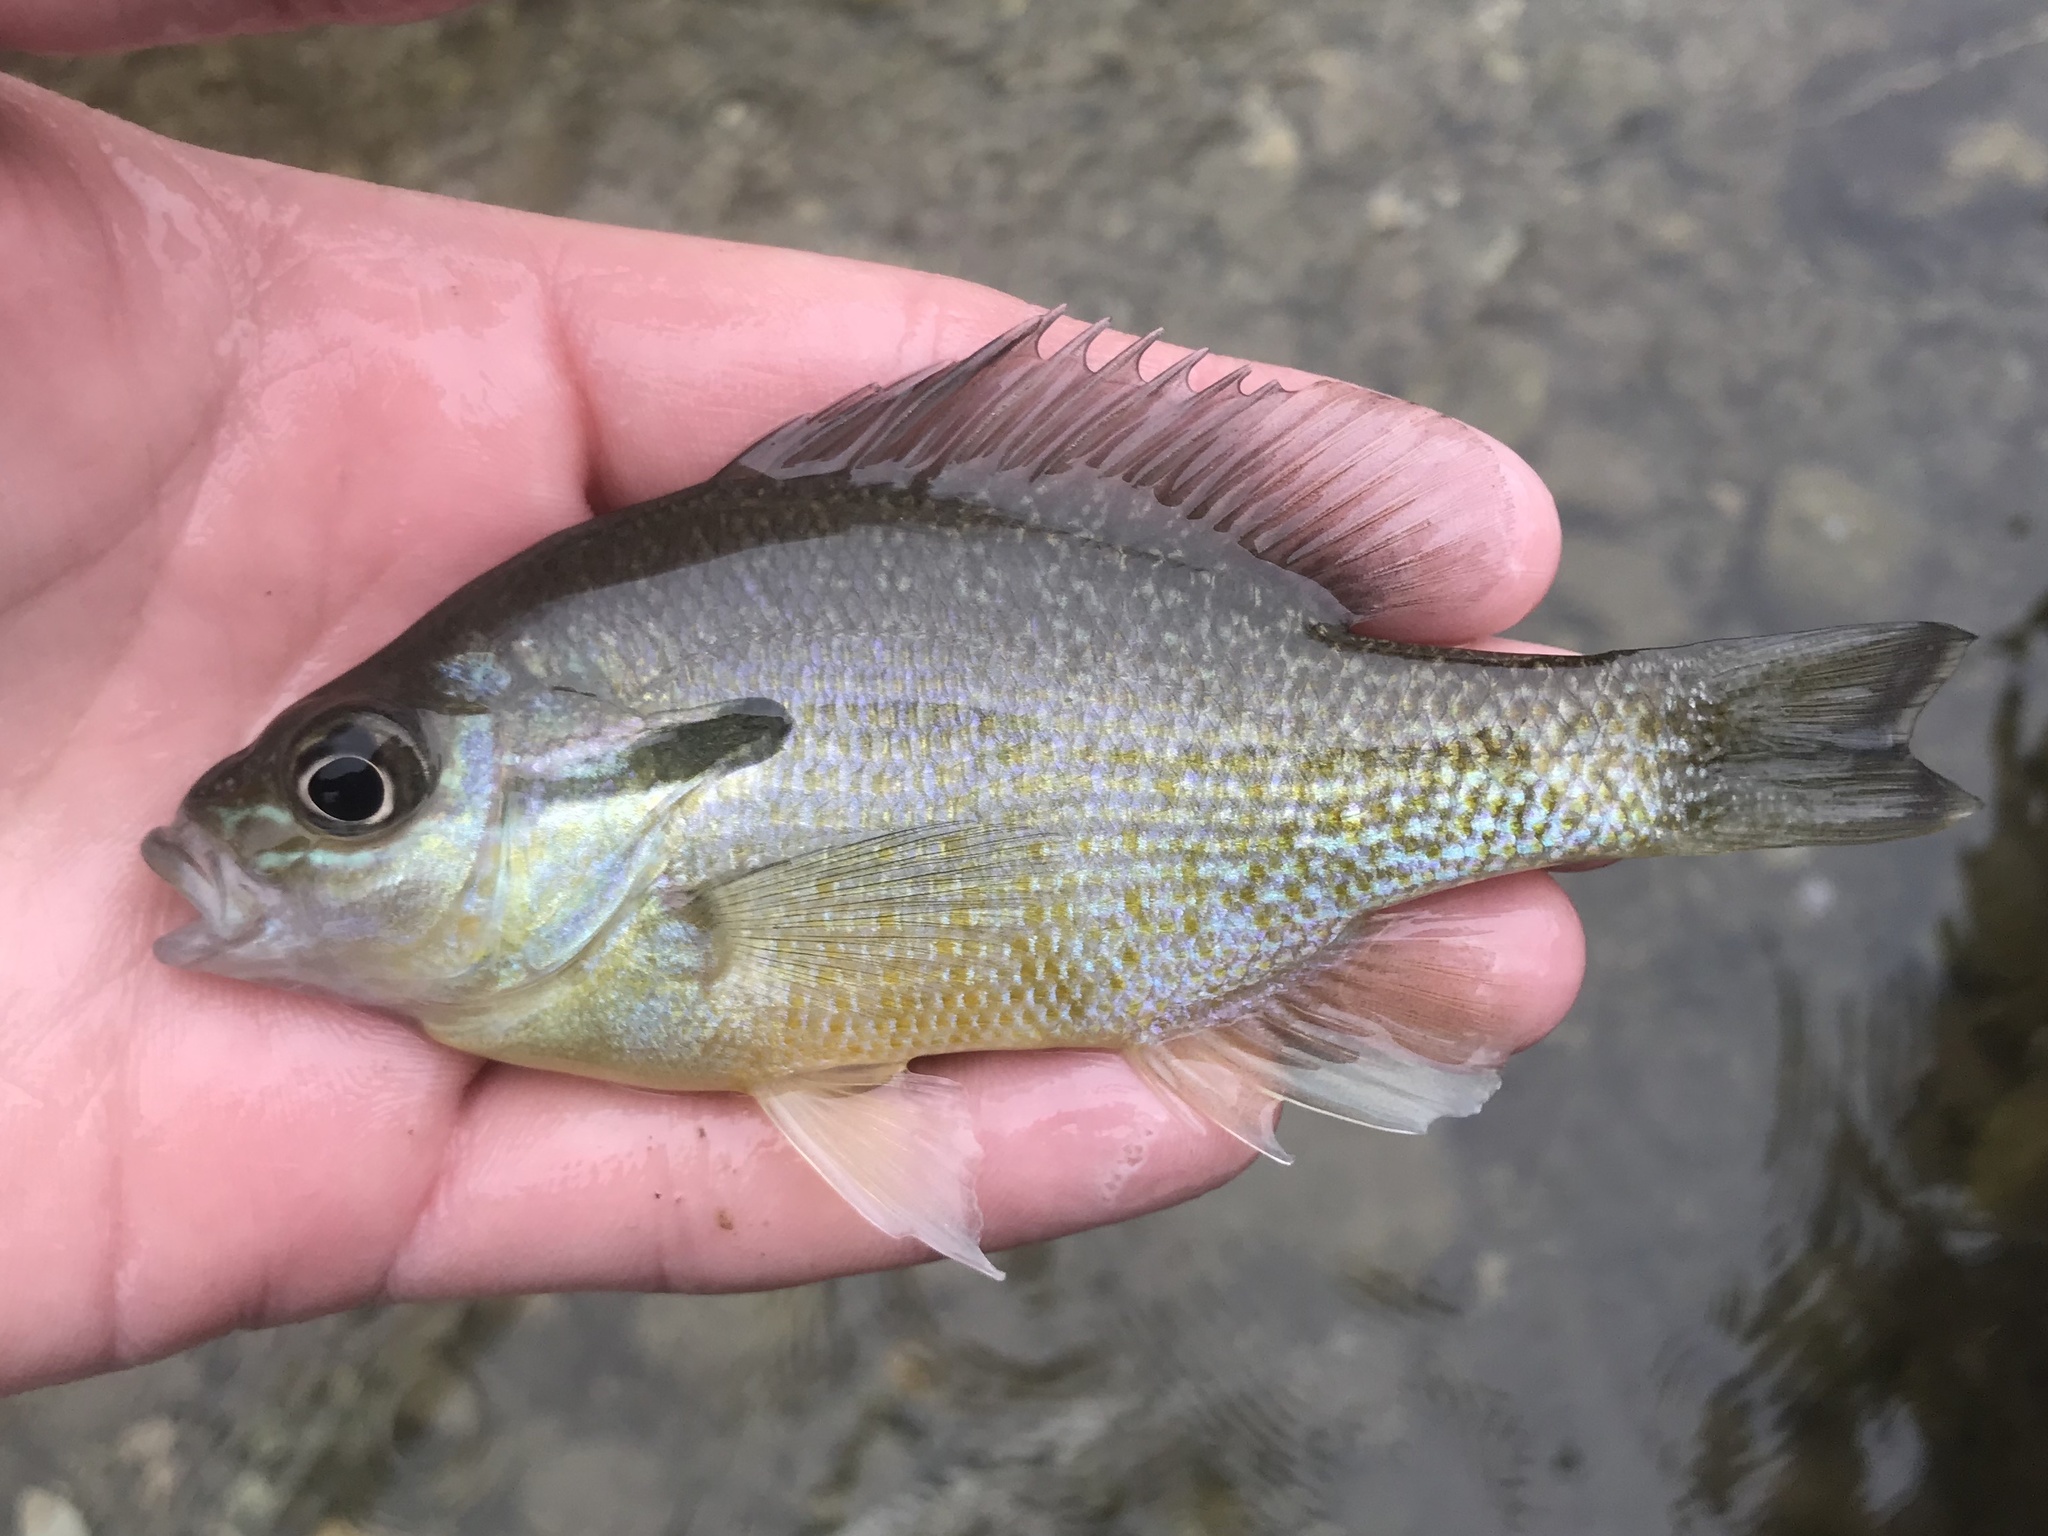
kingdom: Animalia
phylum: Chordata
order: Perciformes
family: Centrarchidae
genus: Lepomis
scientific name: Lepomis auritus
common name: Redbreast sunfish
